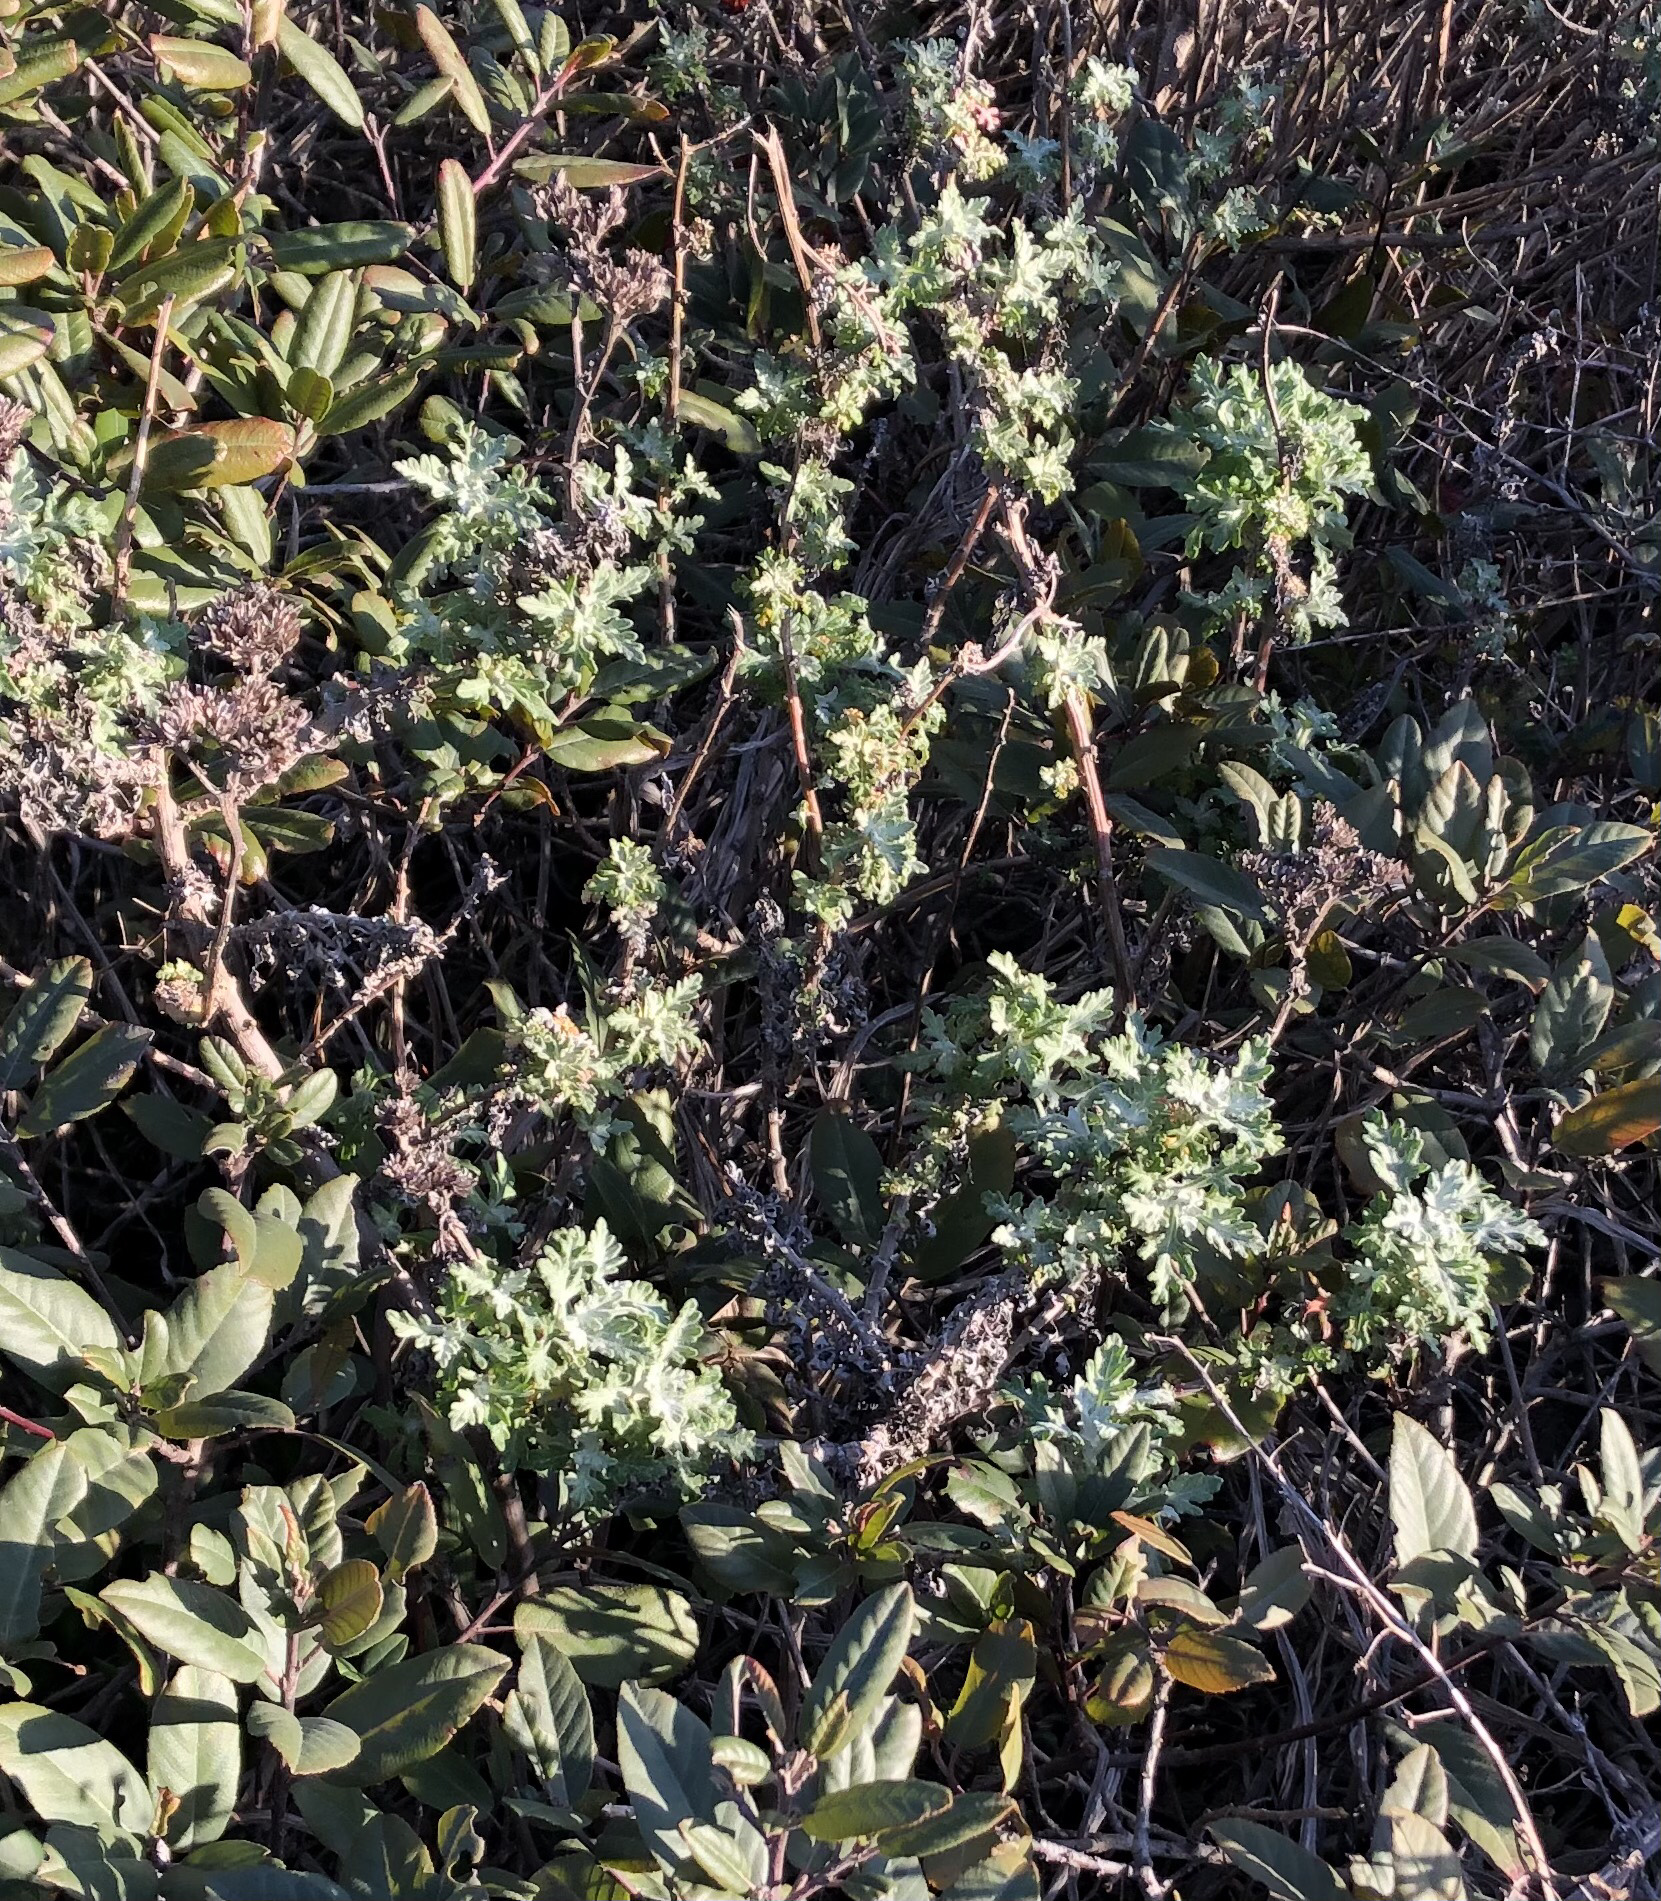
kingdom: Plantae
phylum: Tracheophyta
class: Magnoliopsida
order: Asterales
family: Asteraceae
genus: Eriophyllum
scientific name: Eriophyllum staechadifolium
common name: Lizardtail
